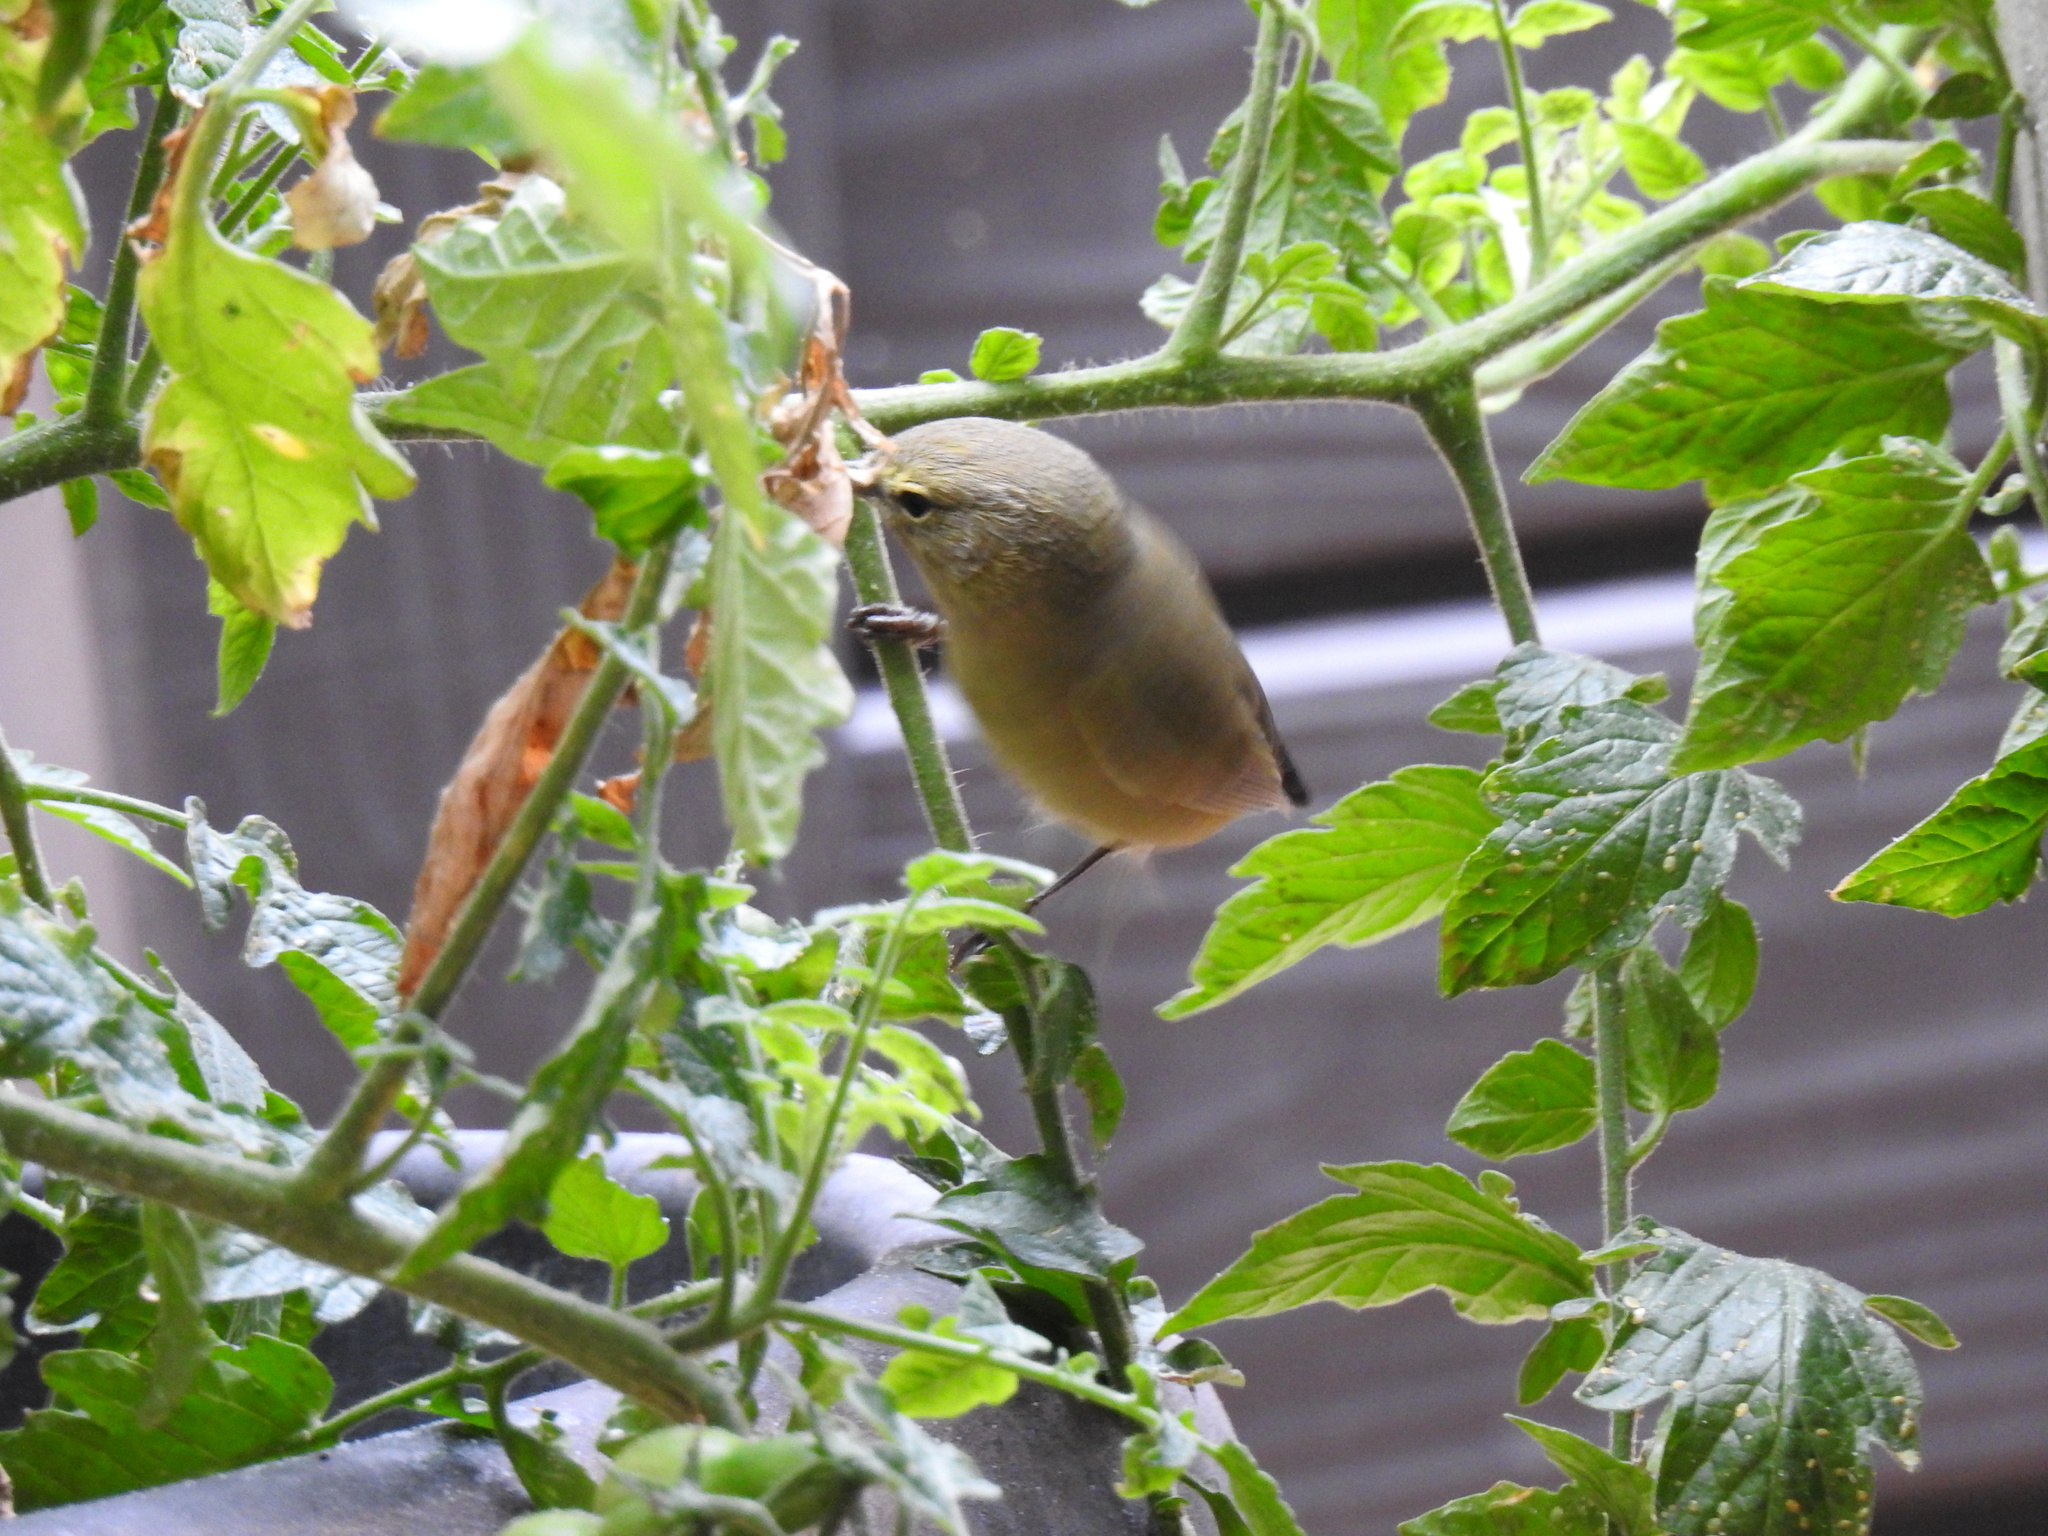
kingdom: Animalia
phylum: Chordata
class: Aves
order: Passeriformes
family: Parulidae
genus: Leiothlypis
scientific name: Leiothlypis celata
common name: Orange-crowned warbler
